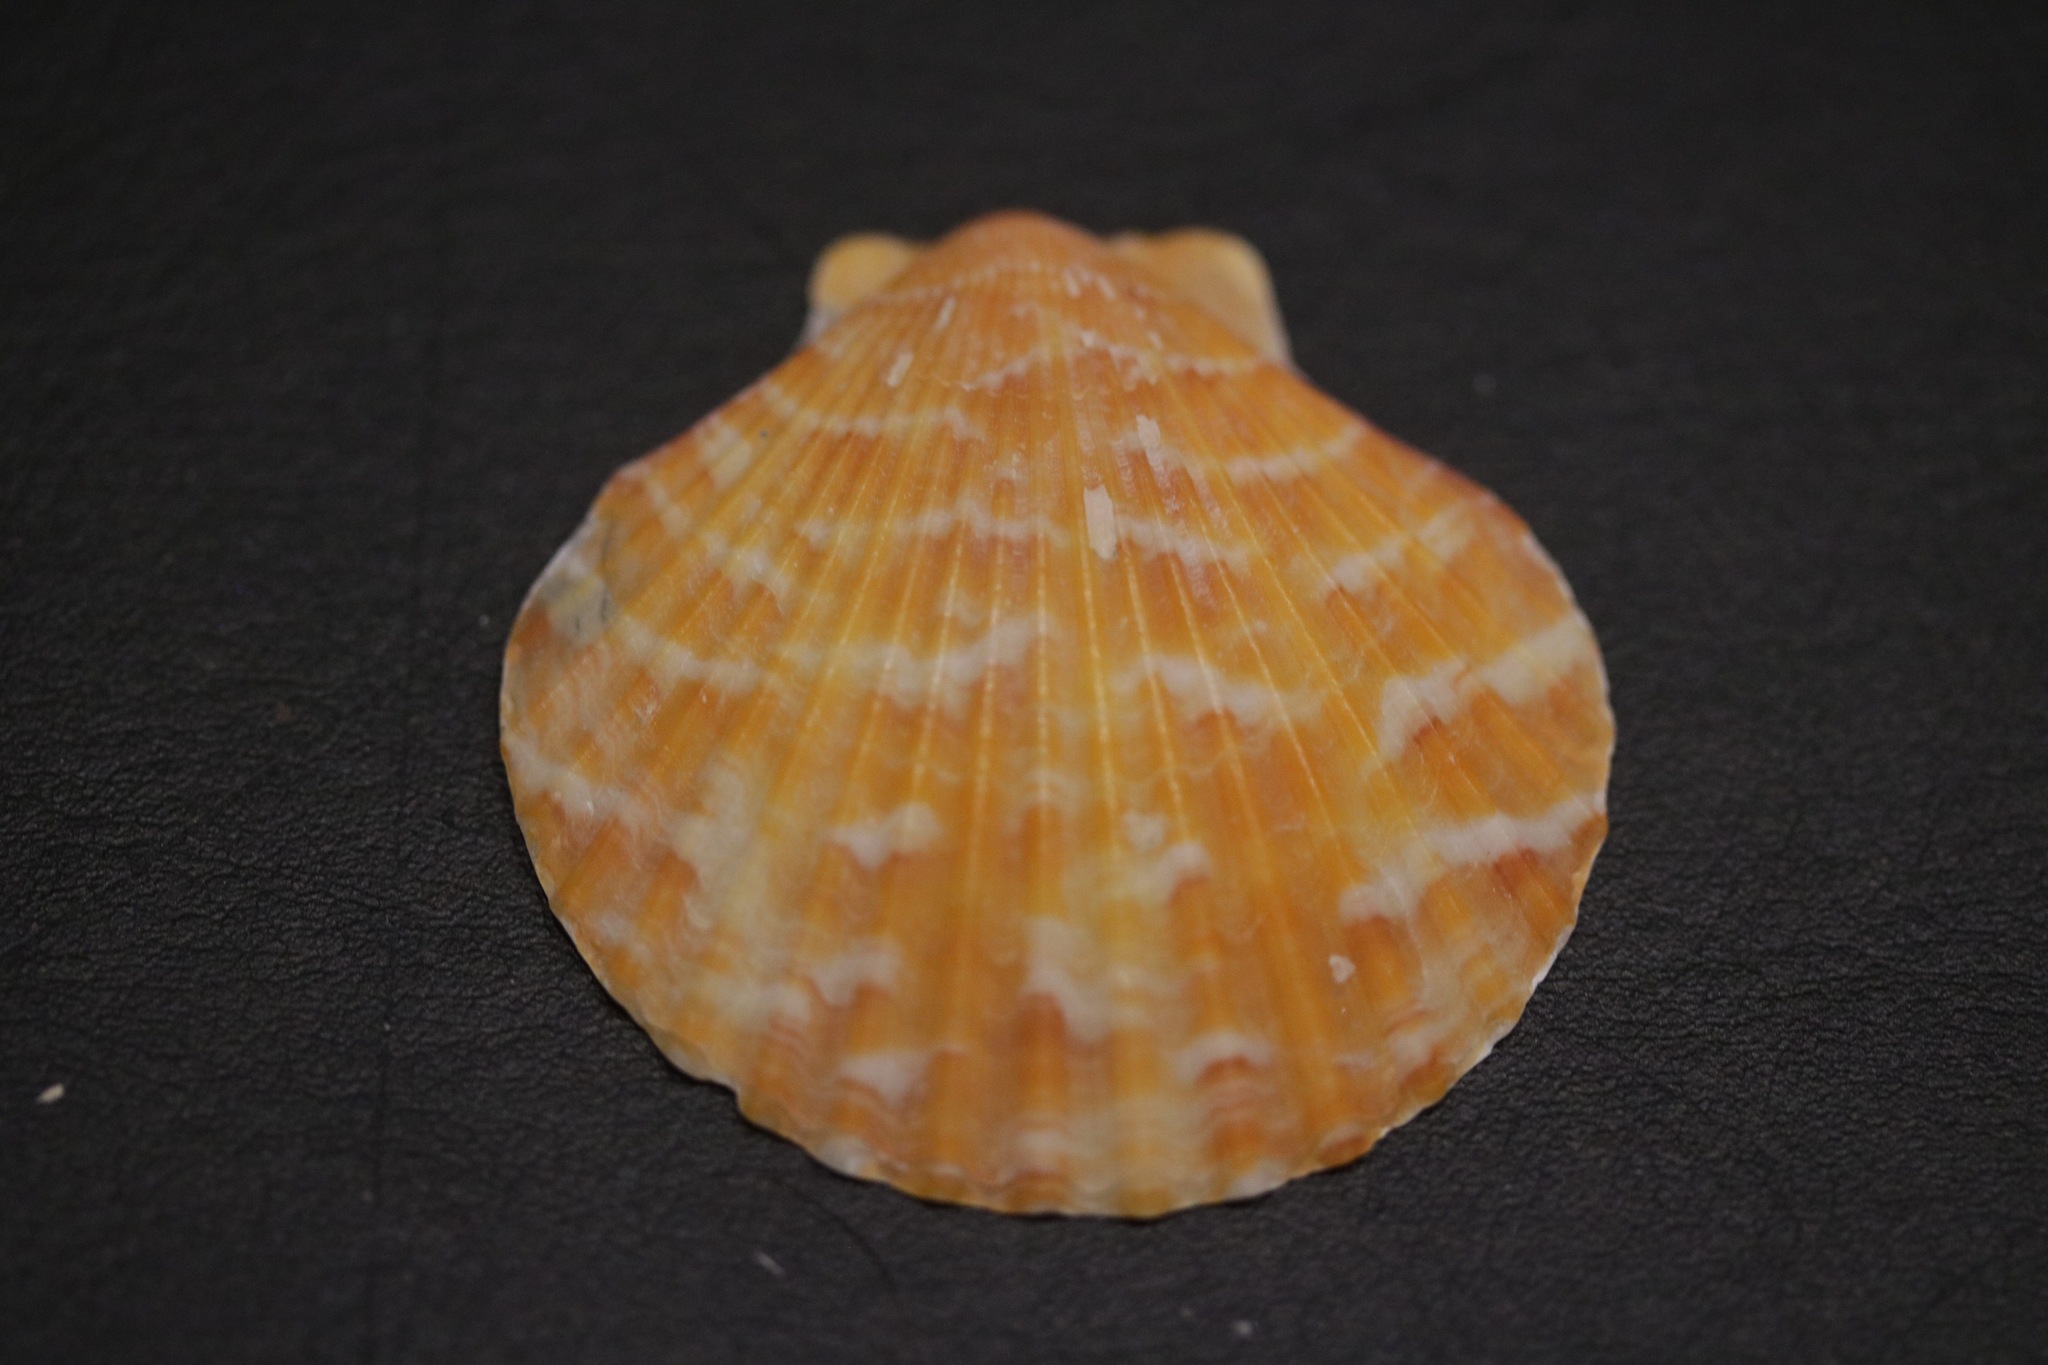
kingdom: Animalia
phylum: Mollusca
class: Bivalvia
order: Pectinida
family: Pectinidae
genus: Aequipecten
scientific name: Aequipecten opercularis
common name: Queen scallop
